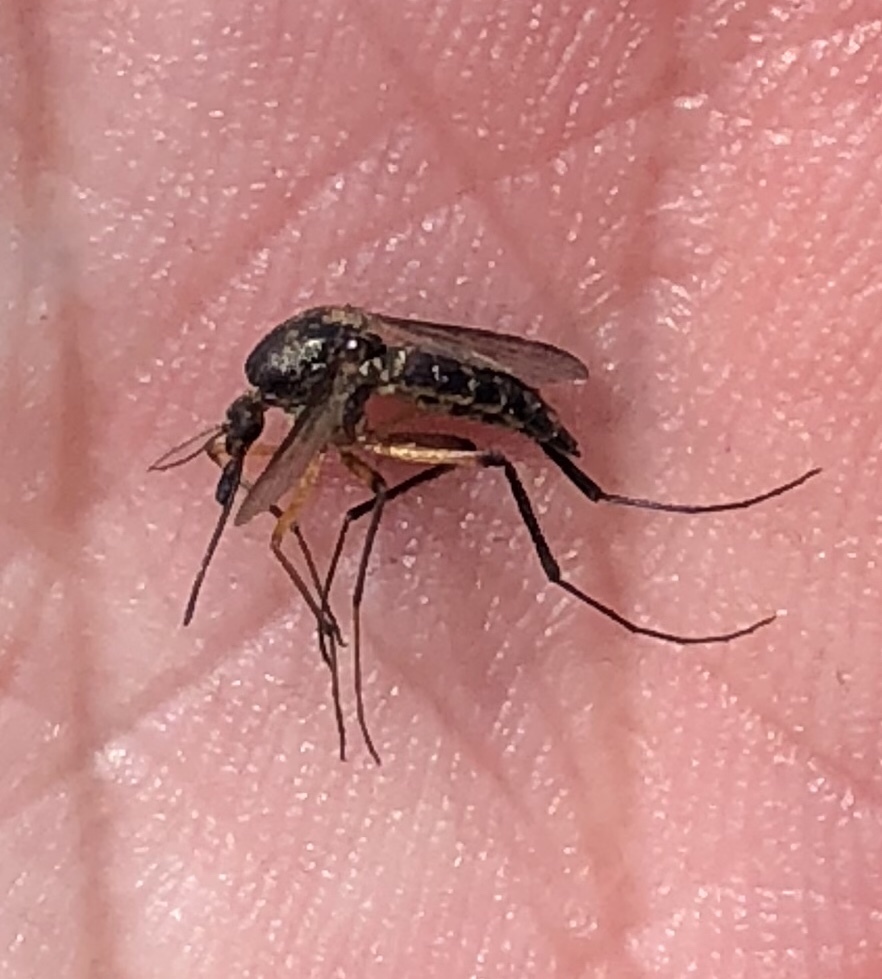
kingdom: Animalia
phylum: Arthropoda
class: Insecta
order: Diptera
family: Culicidae
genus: Psorophora
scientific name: Psorophora cyanescens
